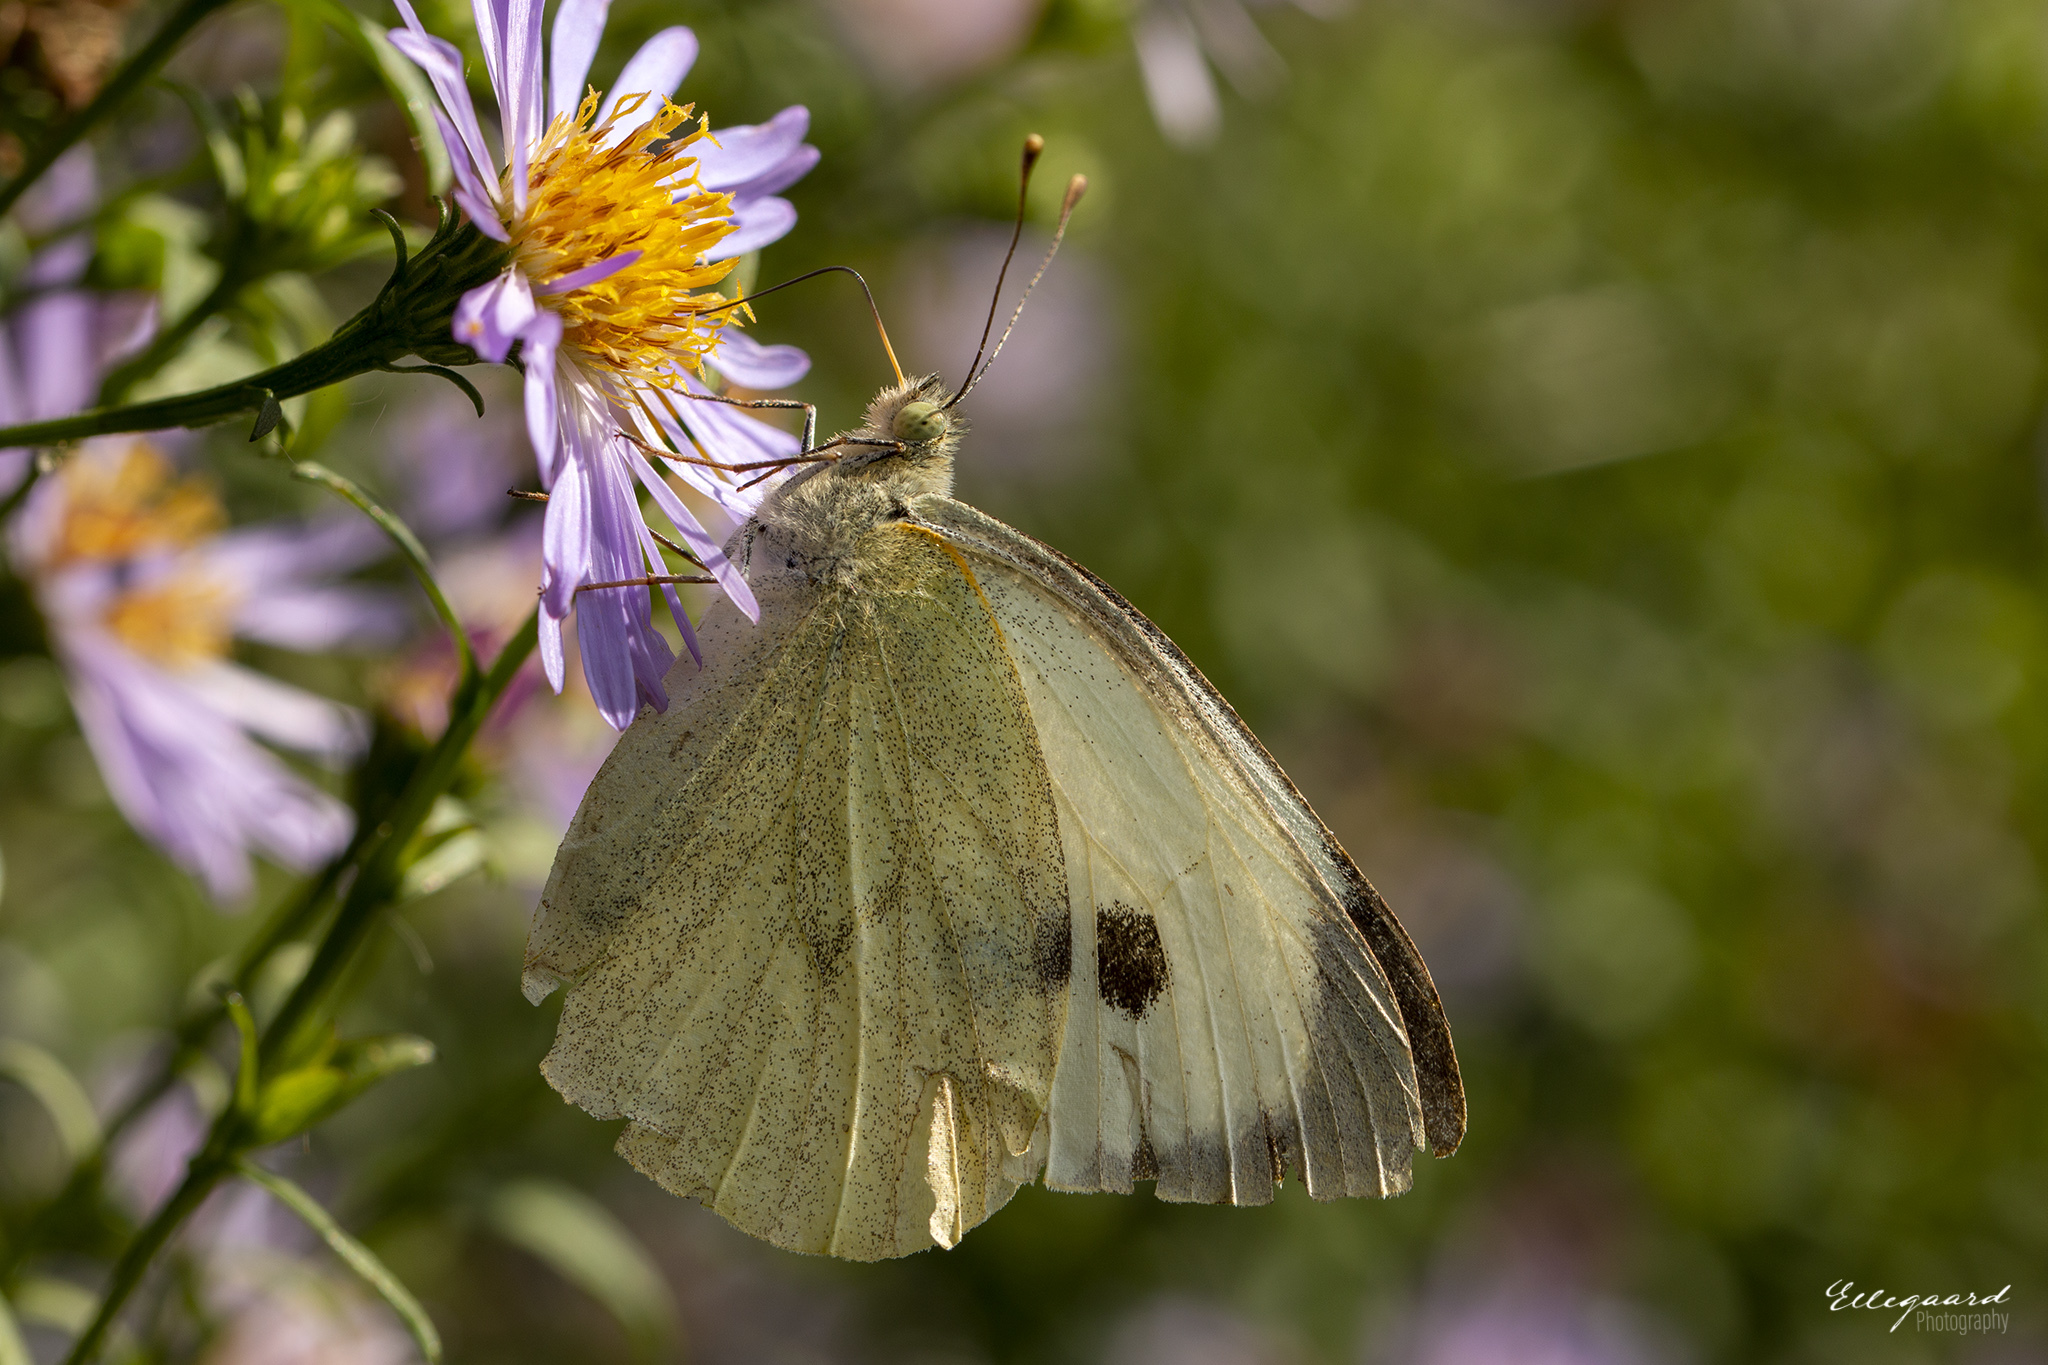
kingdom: Animalia
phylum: Arthropoda
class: Insecta
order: Lepidoptera
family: Pieridae
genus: Pieris
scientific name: Pieris brassicae
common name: Large white
